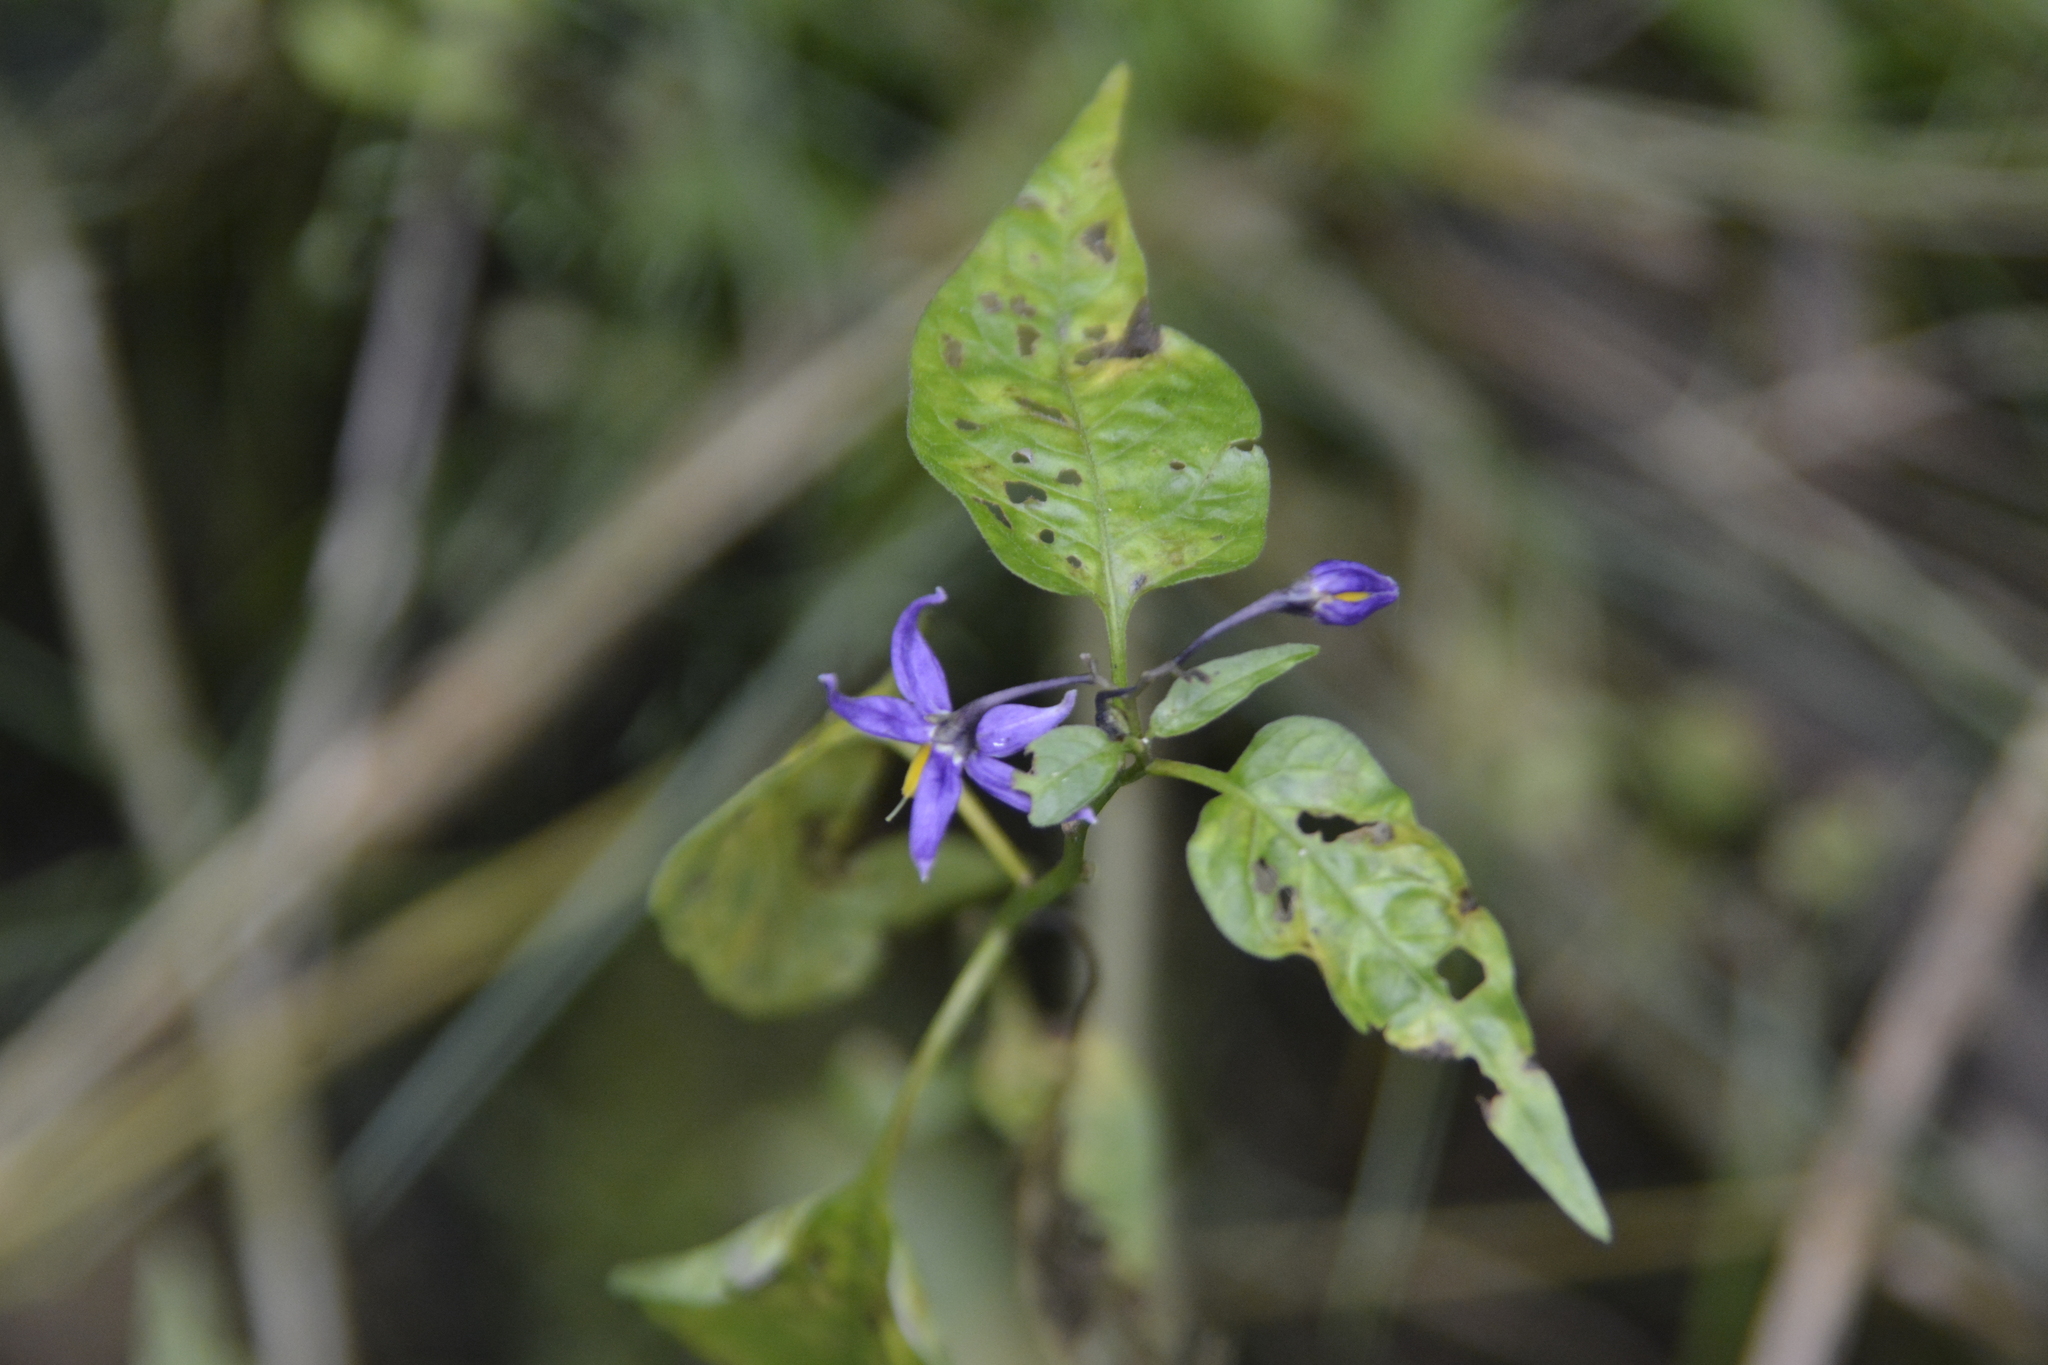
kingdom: Plantae
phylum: Tracheophyta
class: Magnoliopsida
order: Solanales
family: Solanaceae
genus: Solanum
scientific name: Solanum dulcamara
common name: Climbing nightshade
